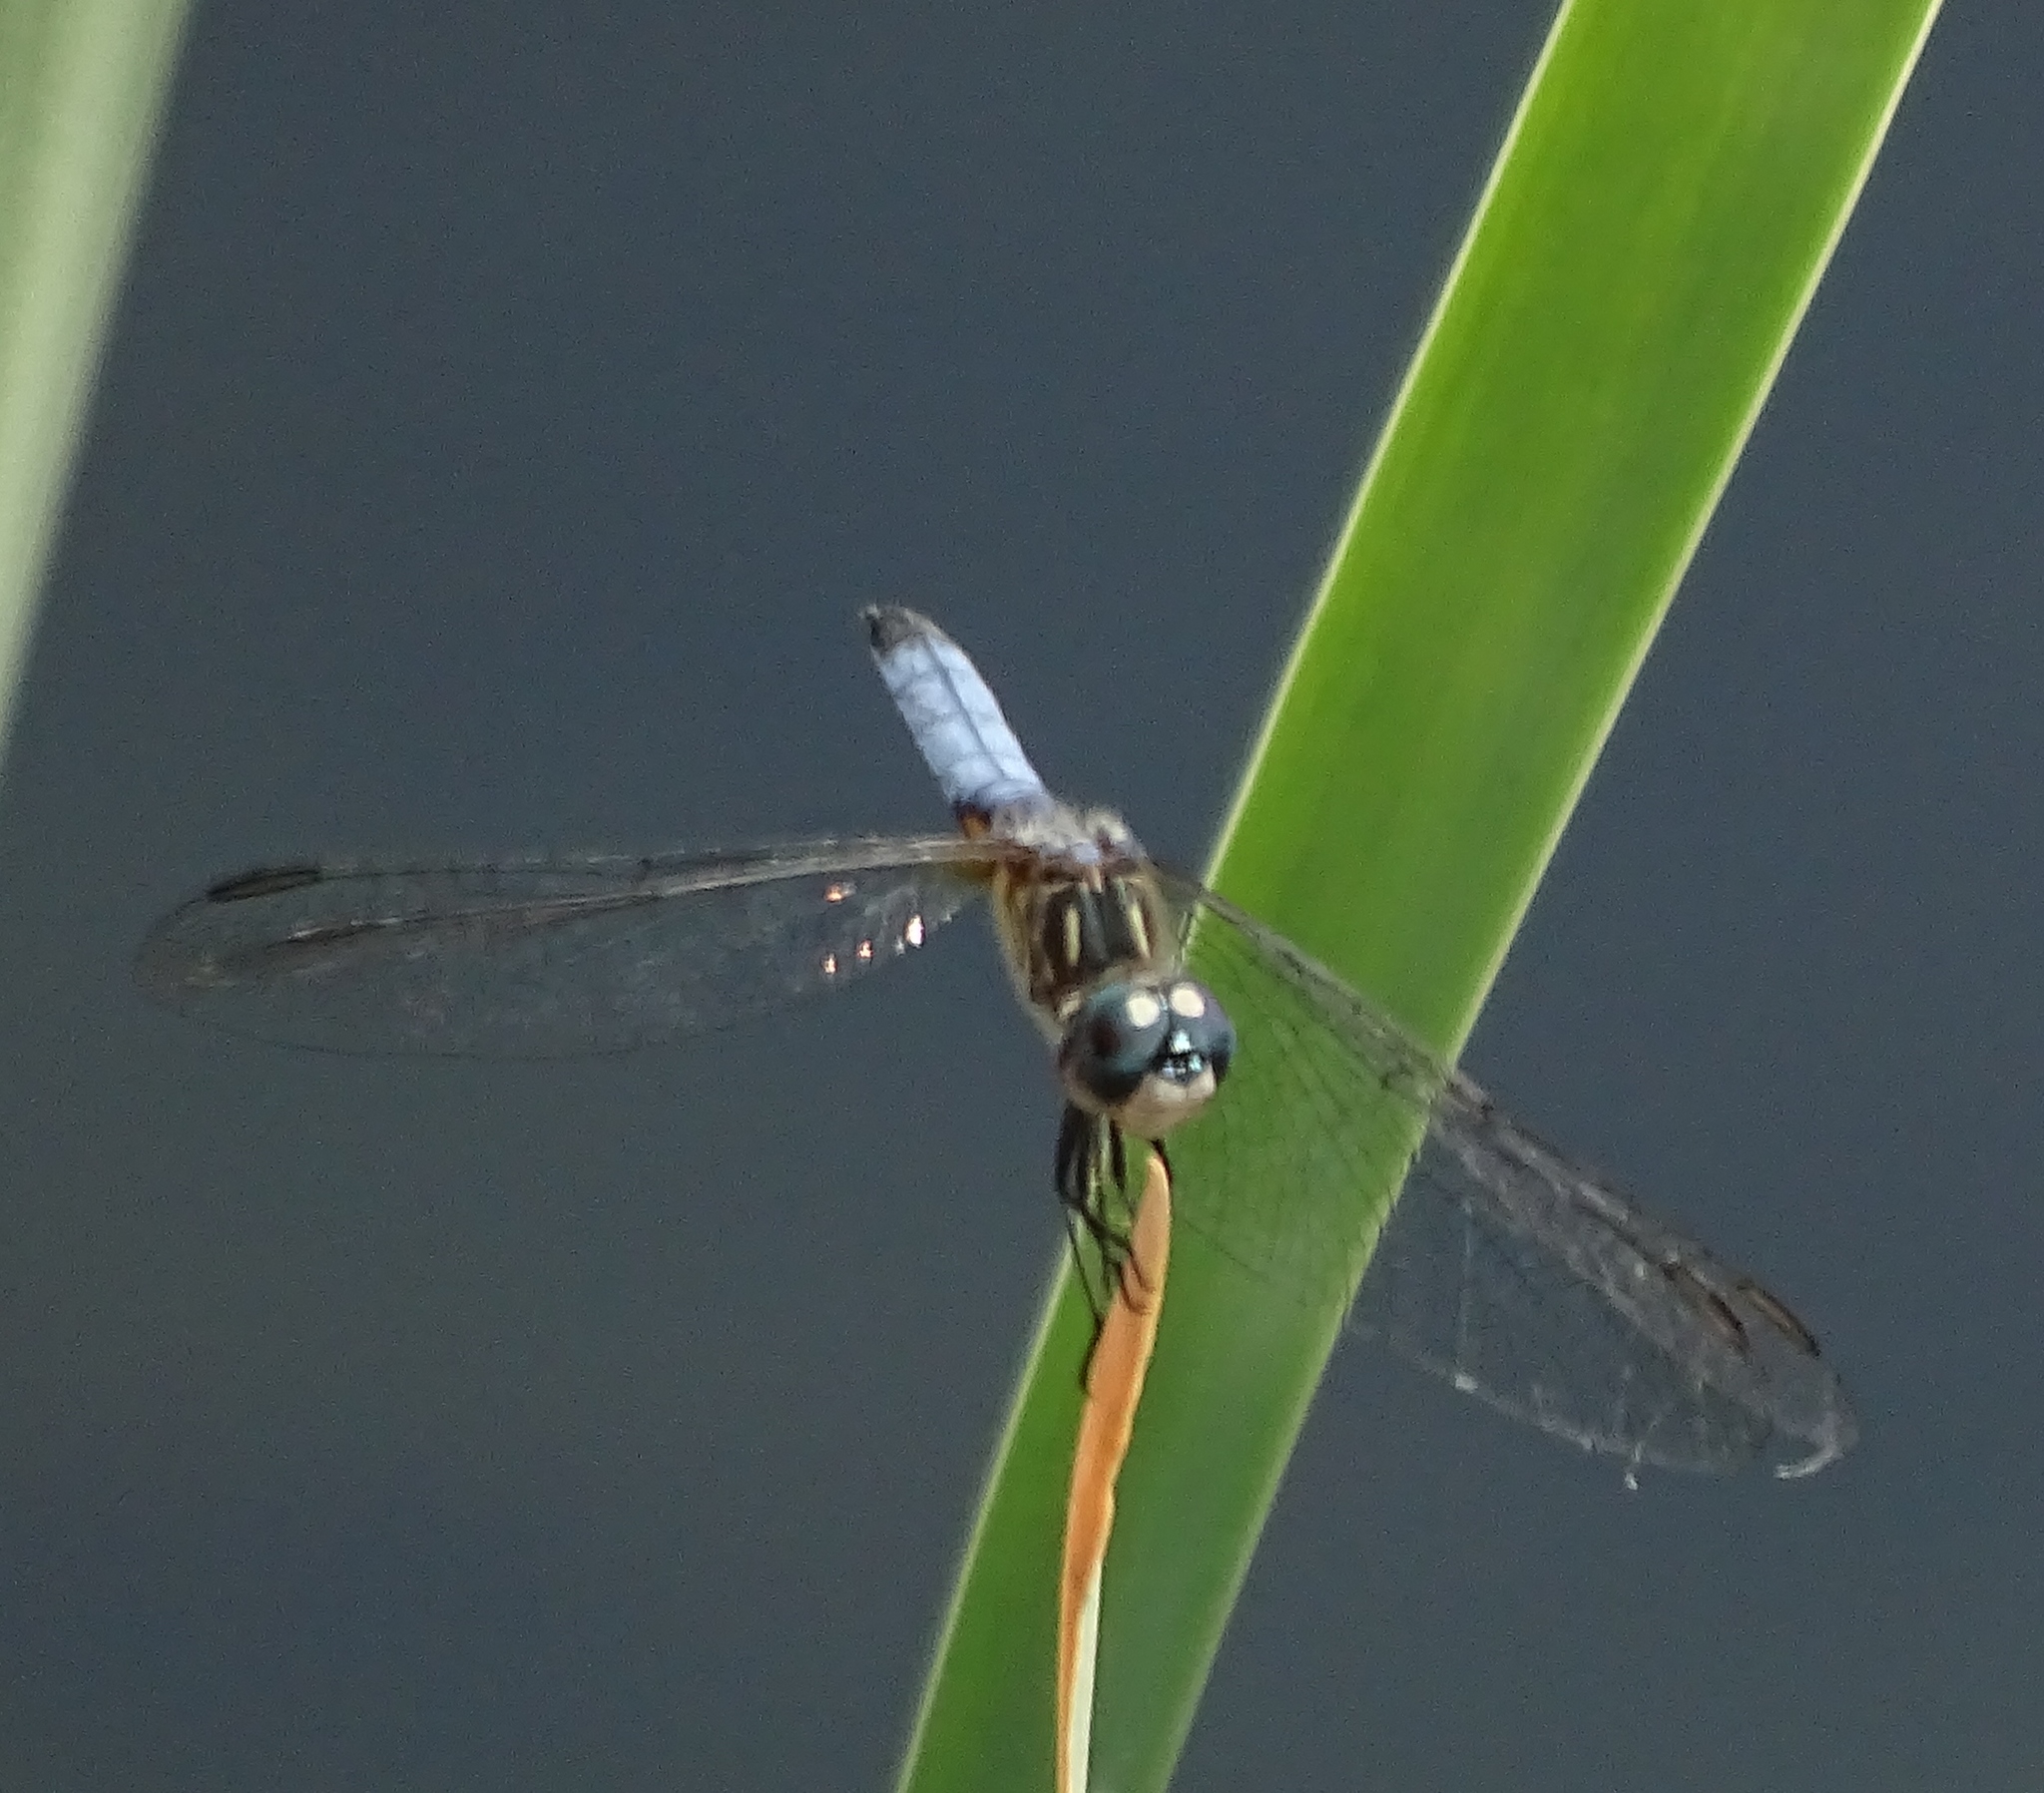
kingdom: Animalia
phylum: Arthropoda
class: Insecta
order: Odonata
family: Libellulidae
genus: Pachydiplax
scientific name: Pachydiplax longipennis
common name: Blue dasher
